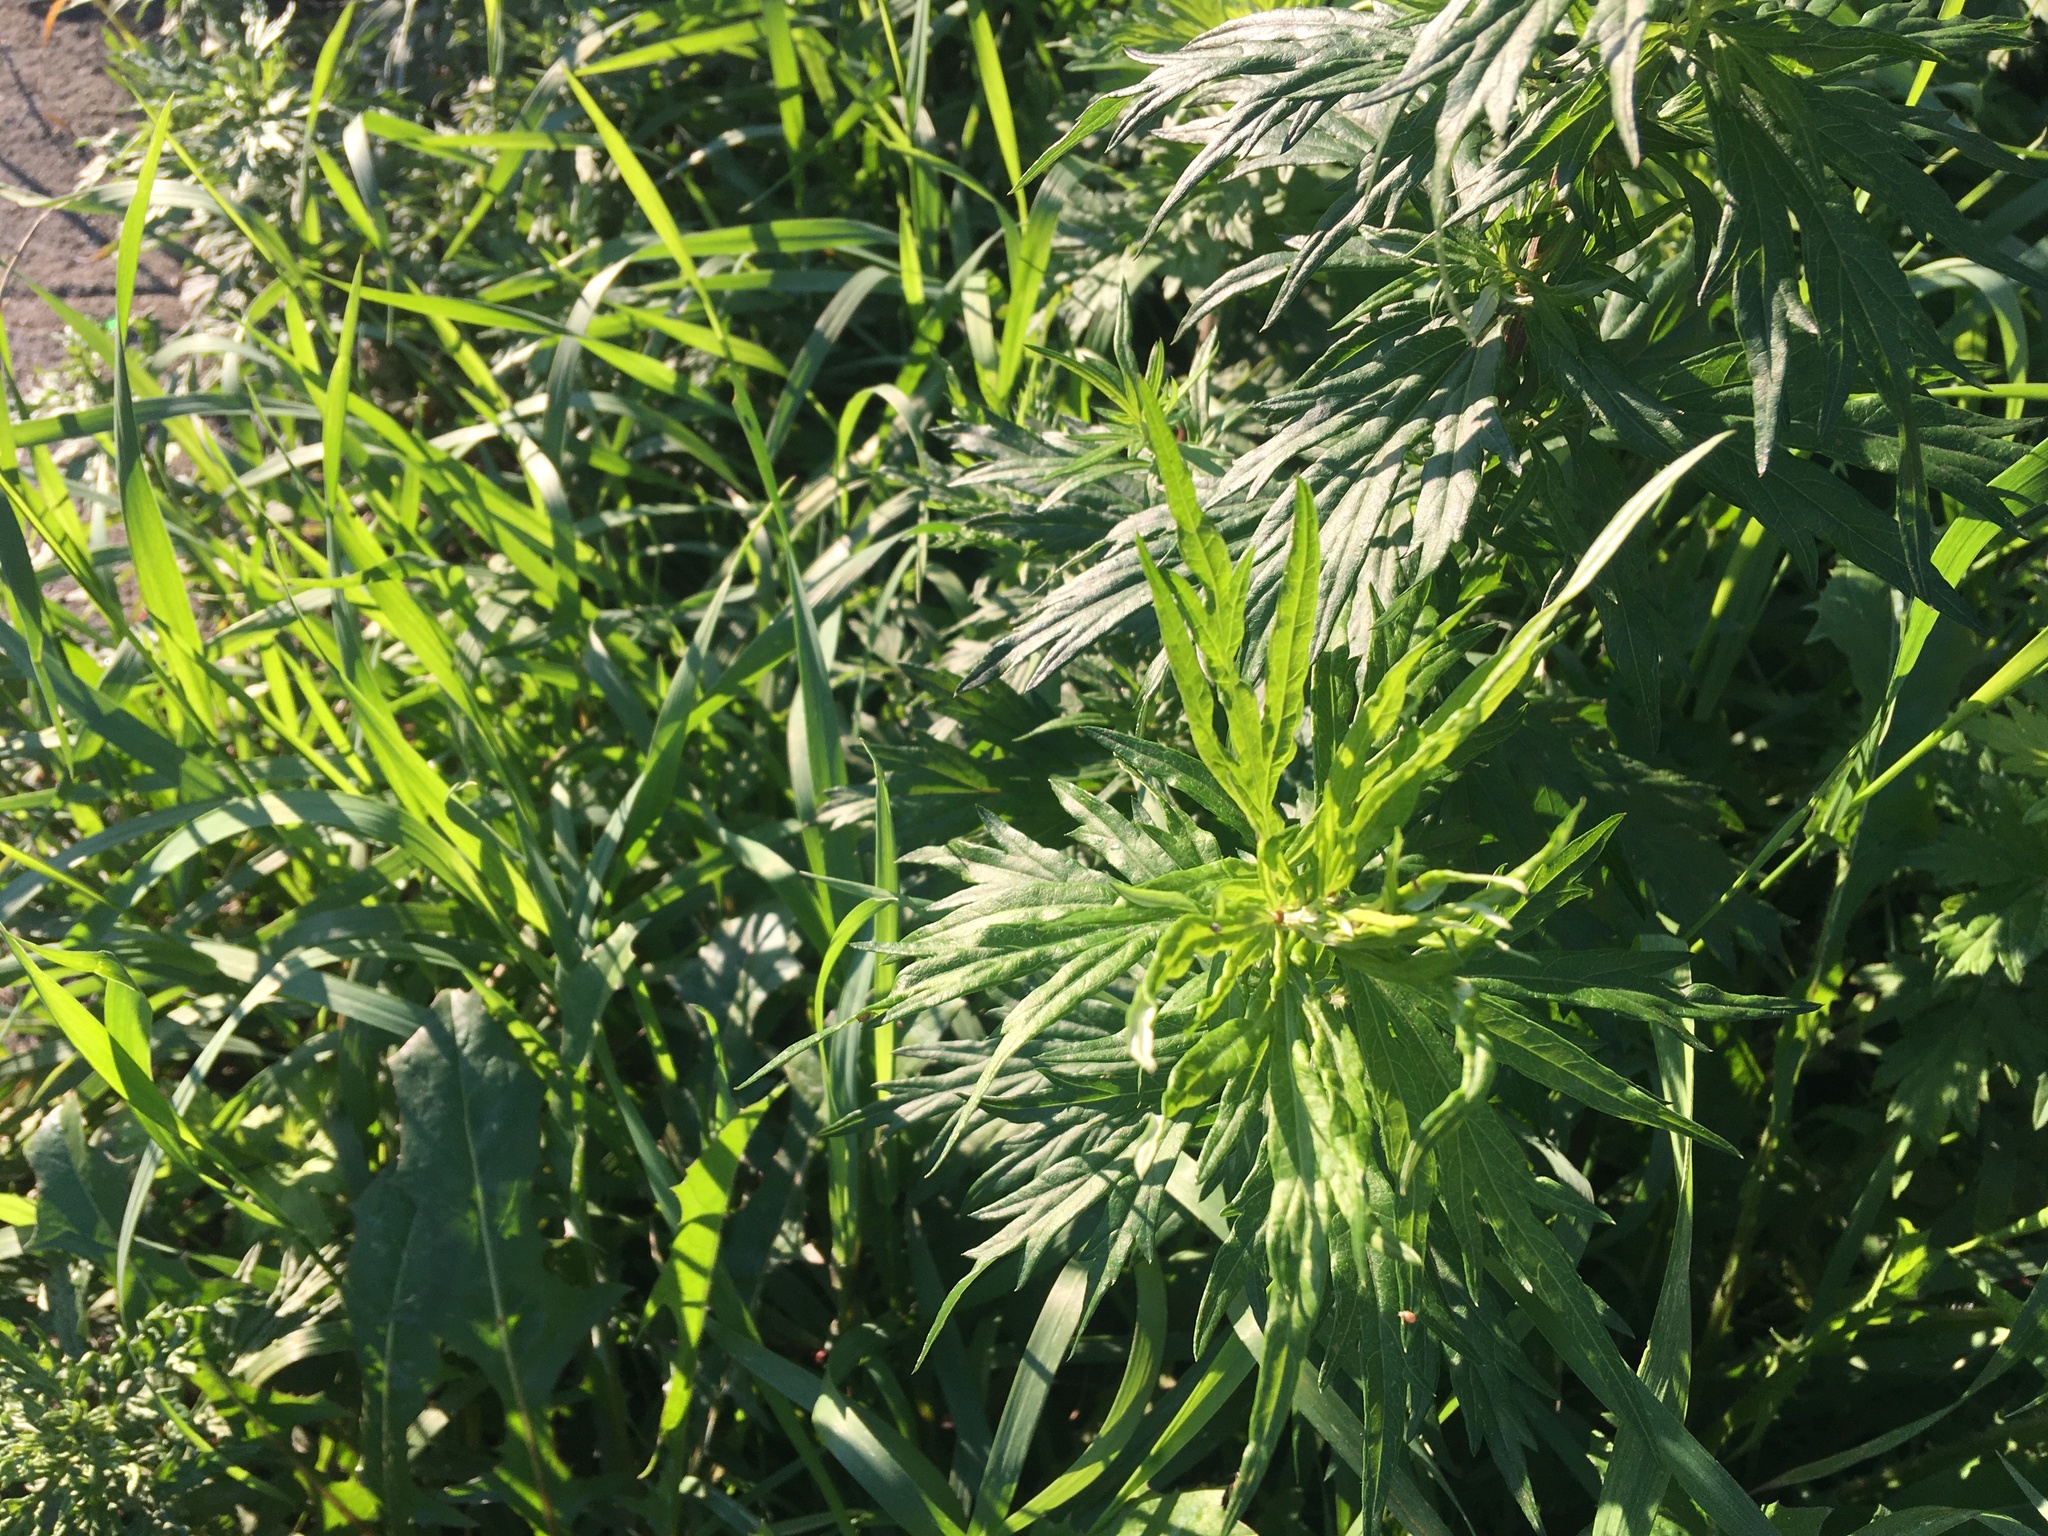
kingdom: Plantae
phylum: Tracheophyta
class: Magnoliopsida
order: Asterales
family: Asteraceae
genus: Artemisia
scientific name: Artemisia vulgaris
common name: Mugwort
